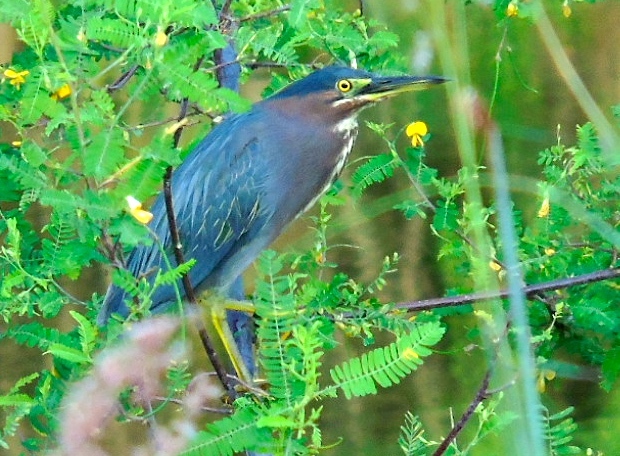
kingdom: Animalia
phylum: Chordata
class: Aves
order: Pelecaniformes
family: Ardeidae
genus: Butorides
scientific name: Butorides virescens
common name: Green heron
